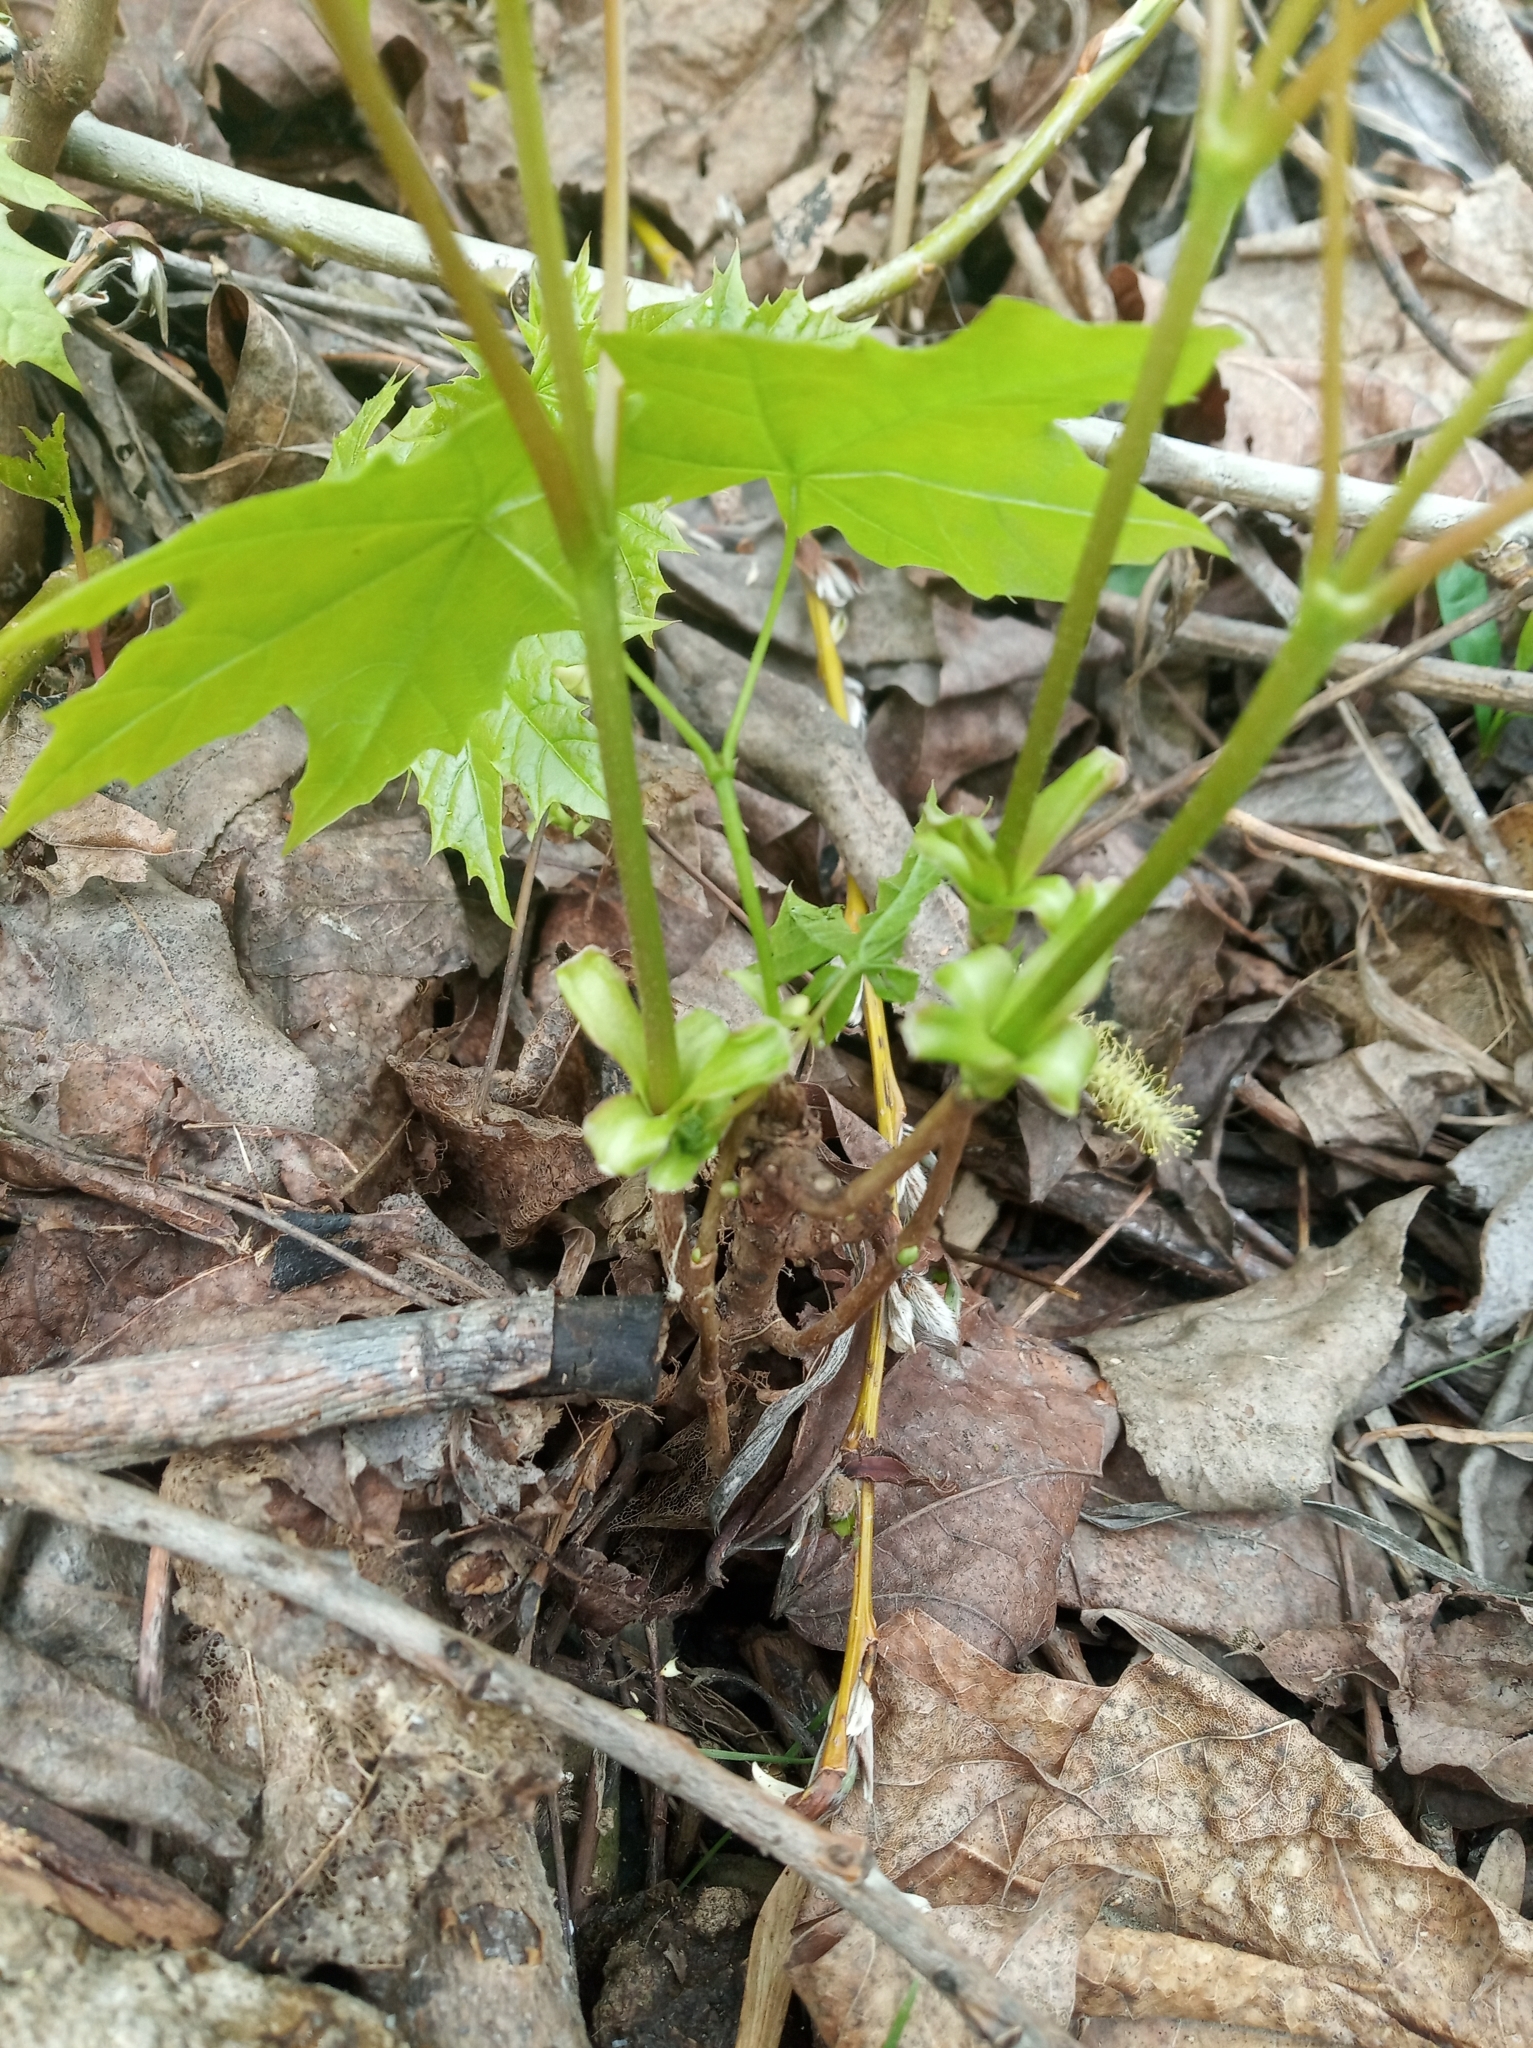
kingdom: Plantae
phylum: Tracheophyta
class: Magnoliopsida
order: Sapindales
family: Sapindaceae
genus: Acer
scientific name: Acer platanoides
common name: Norway maple
